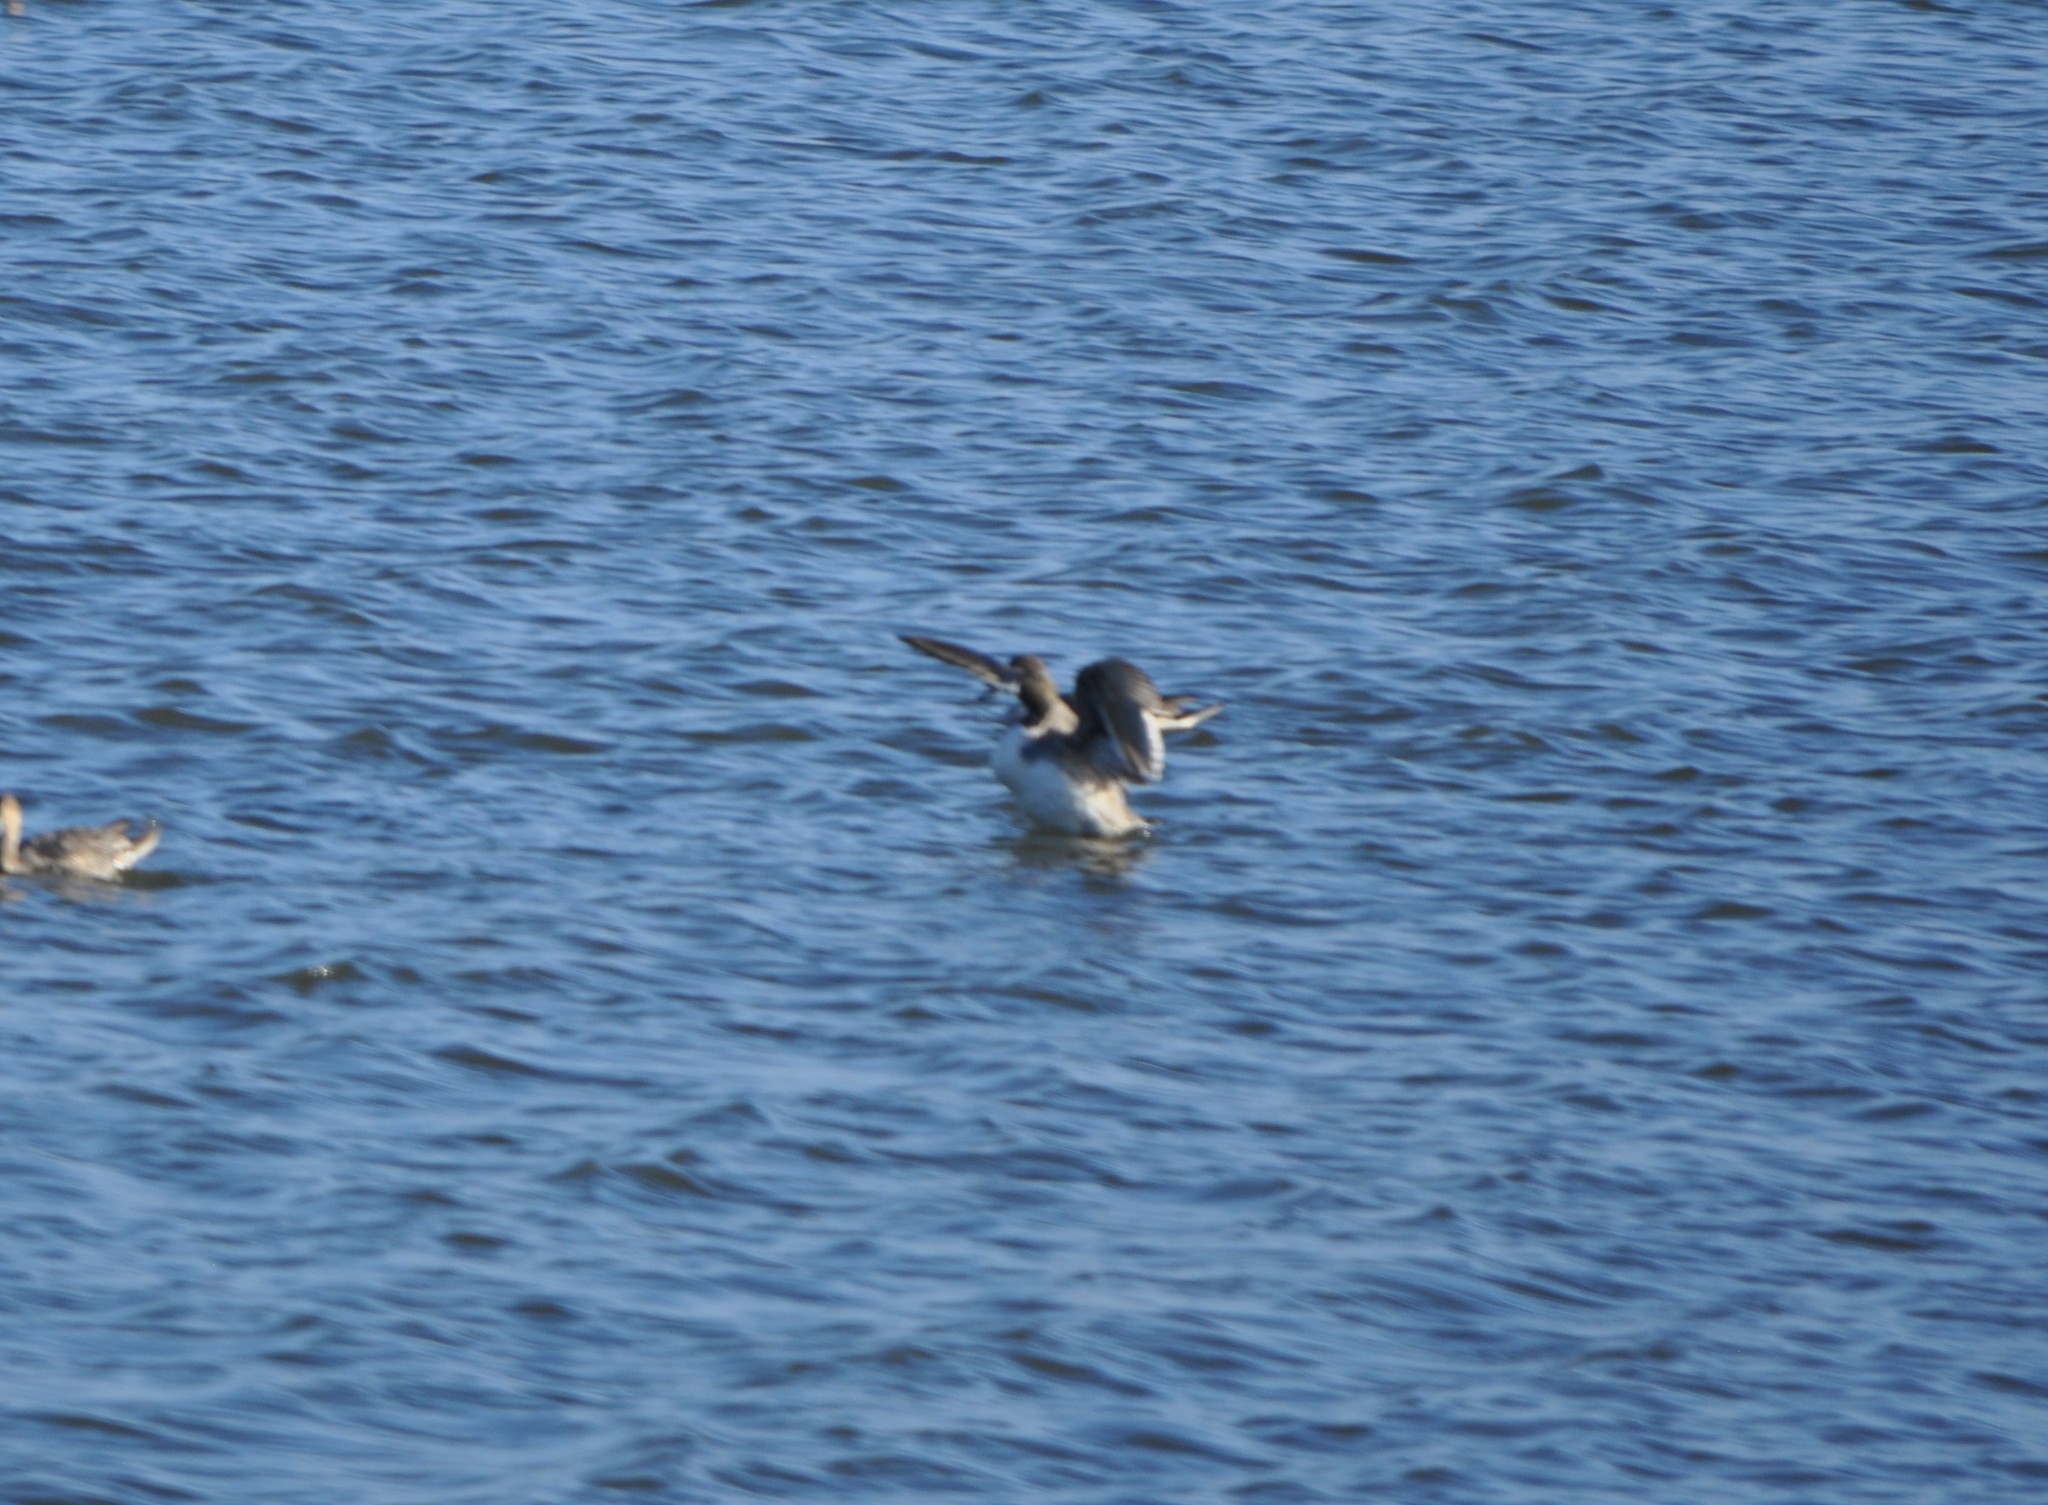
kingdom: Animalia
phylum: Chordata
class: Aves
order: Anseriformes
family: Anatidae
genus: Anas
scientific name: Anas acuta
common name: Northern pintail
